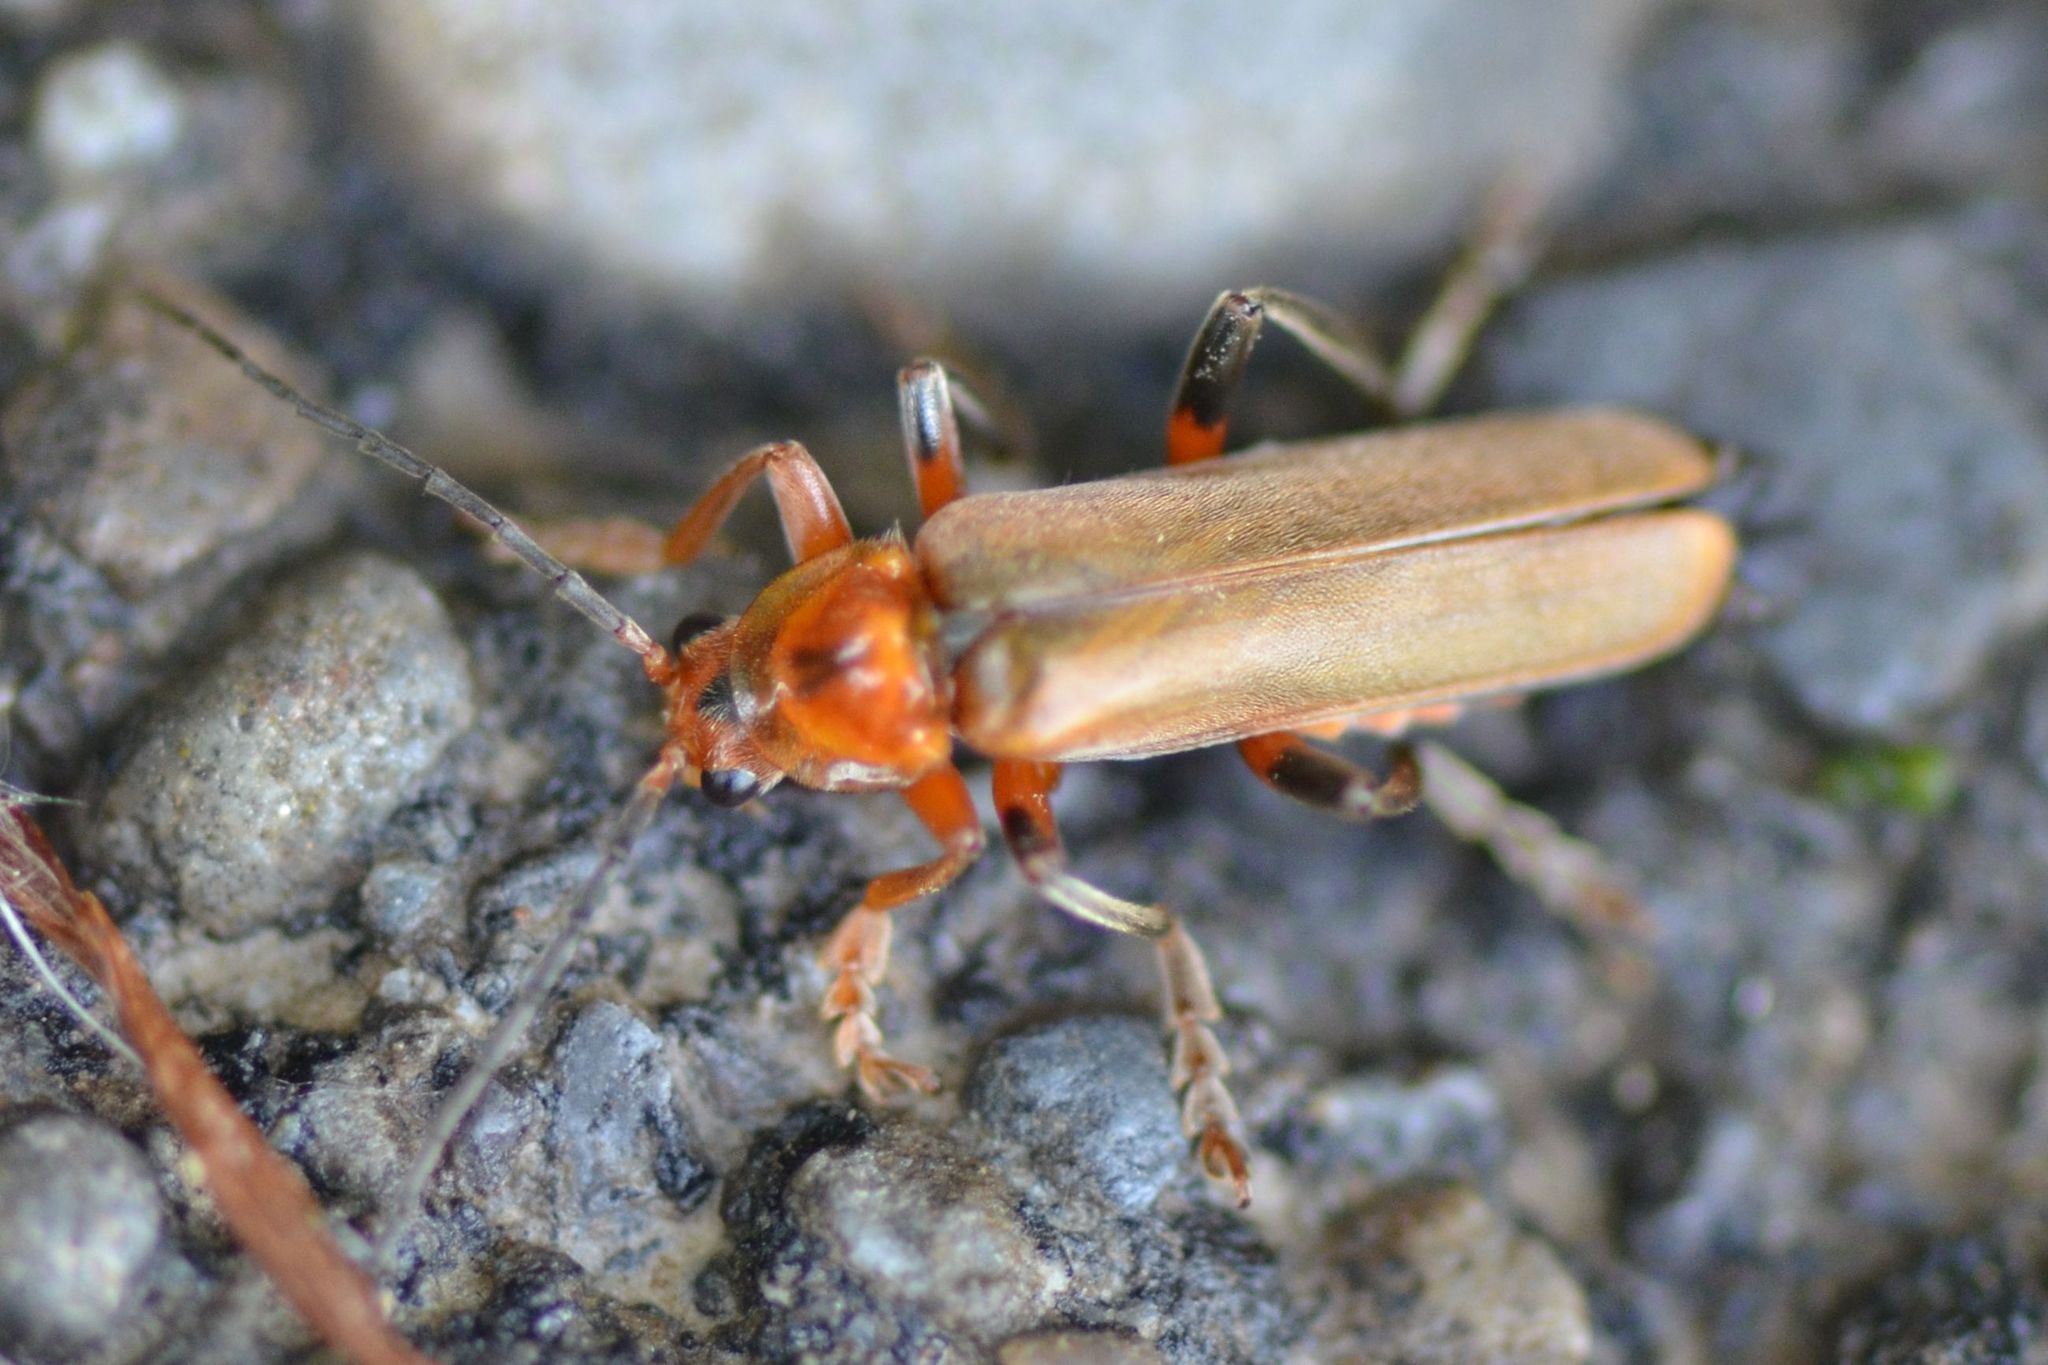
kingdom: Animalia
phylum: Arthropoda
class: Insecta
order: Coleoptera
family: Cantharidae
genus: Cantharis
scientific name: Cantharis livida
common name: Livid soldier beetle
